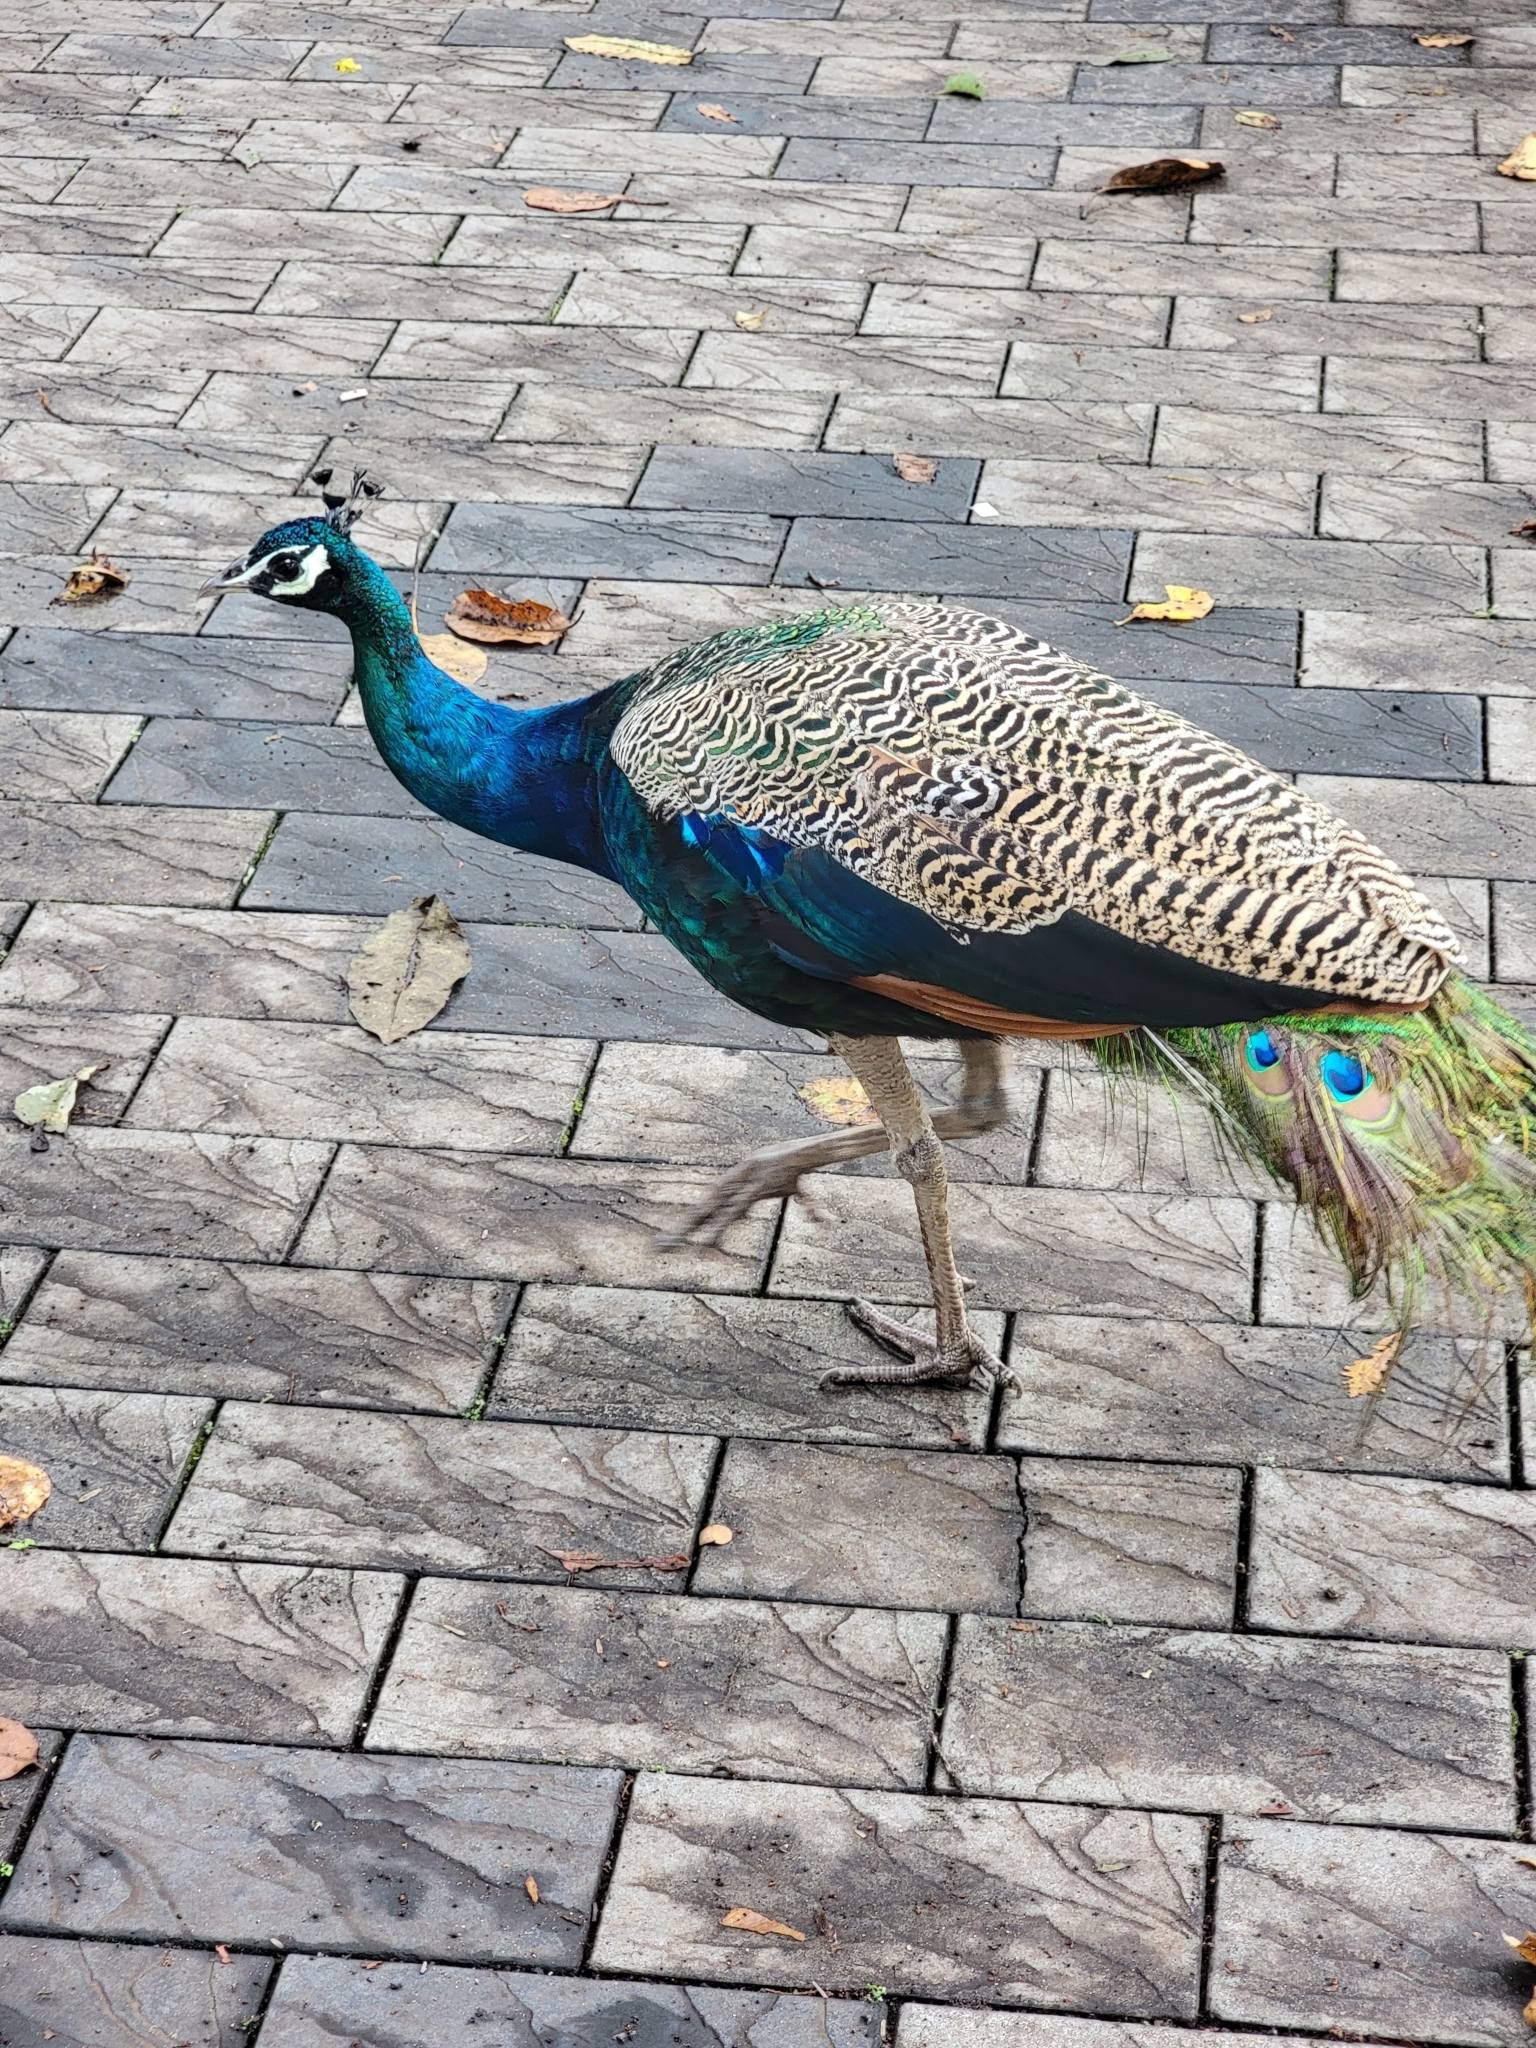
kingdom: Animalia
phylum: Chordata
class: Aves
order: Galliformes
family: Phasianidae
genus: Pavo
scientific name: Pavo cristatus
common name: Indian peafowl
